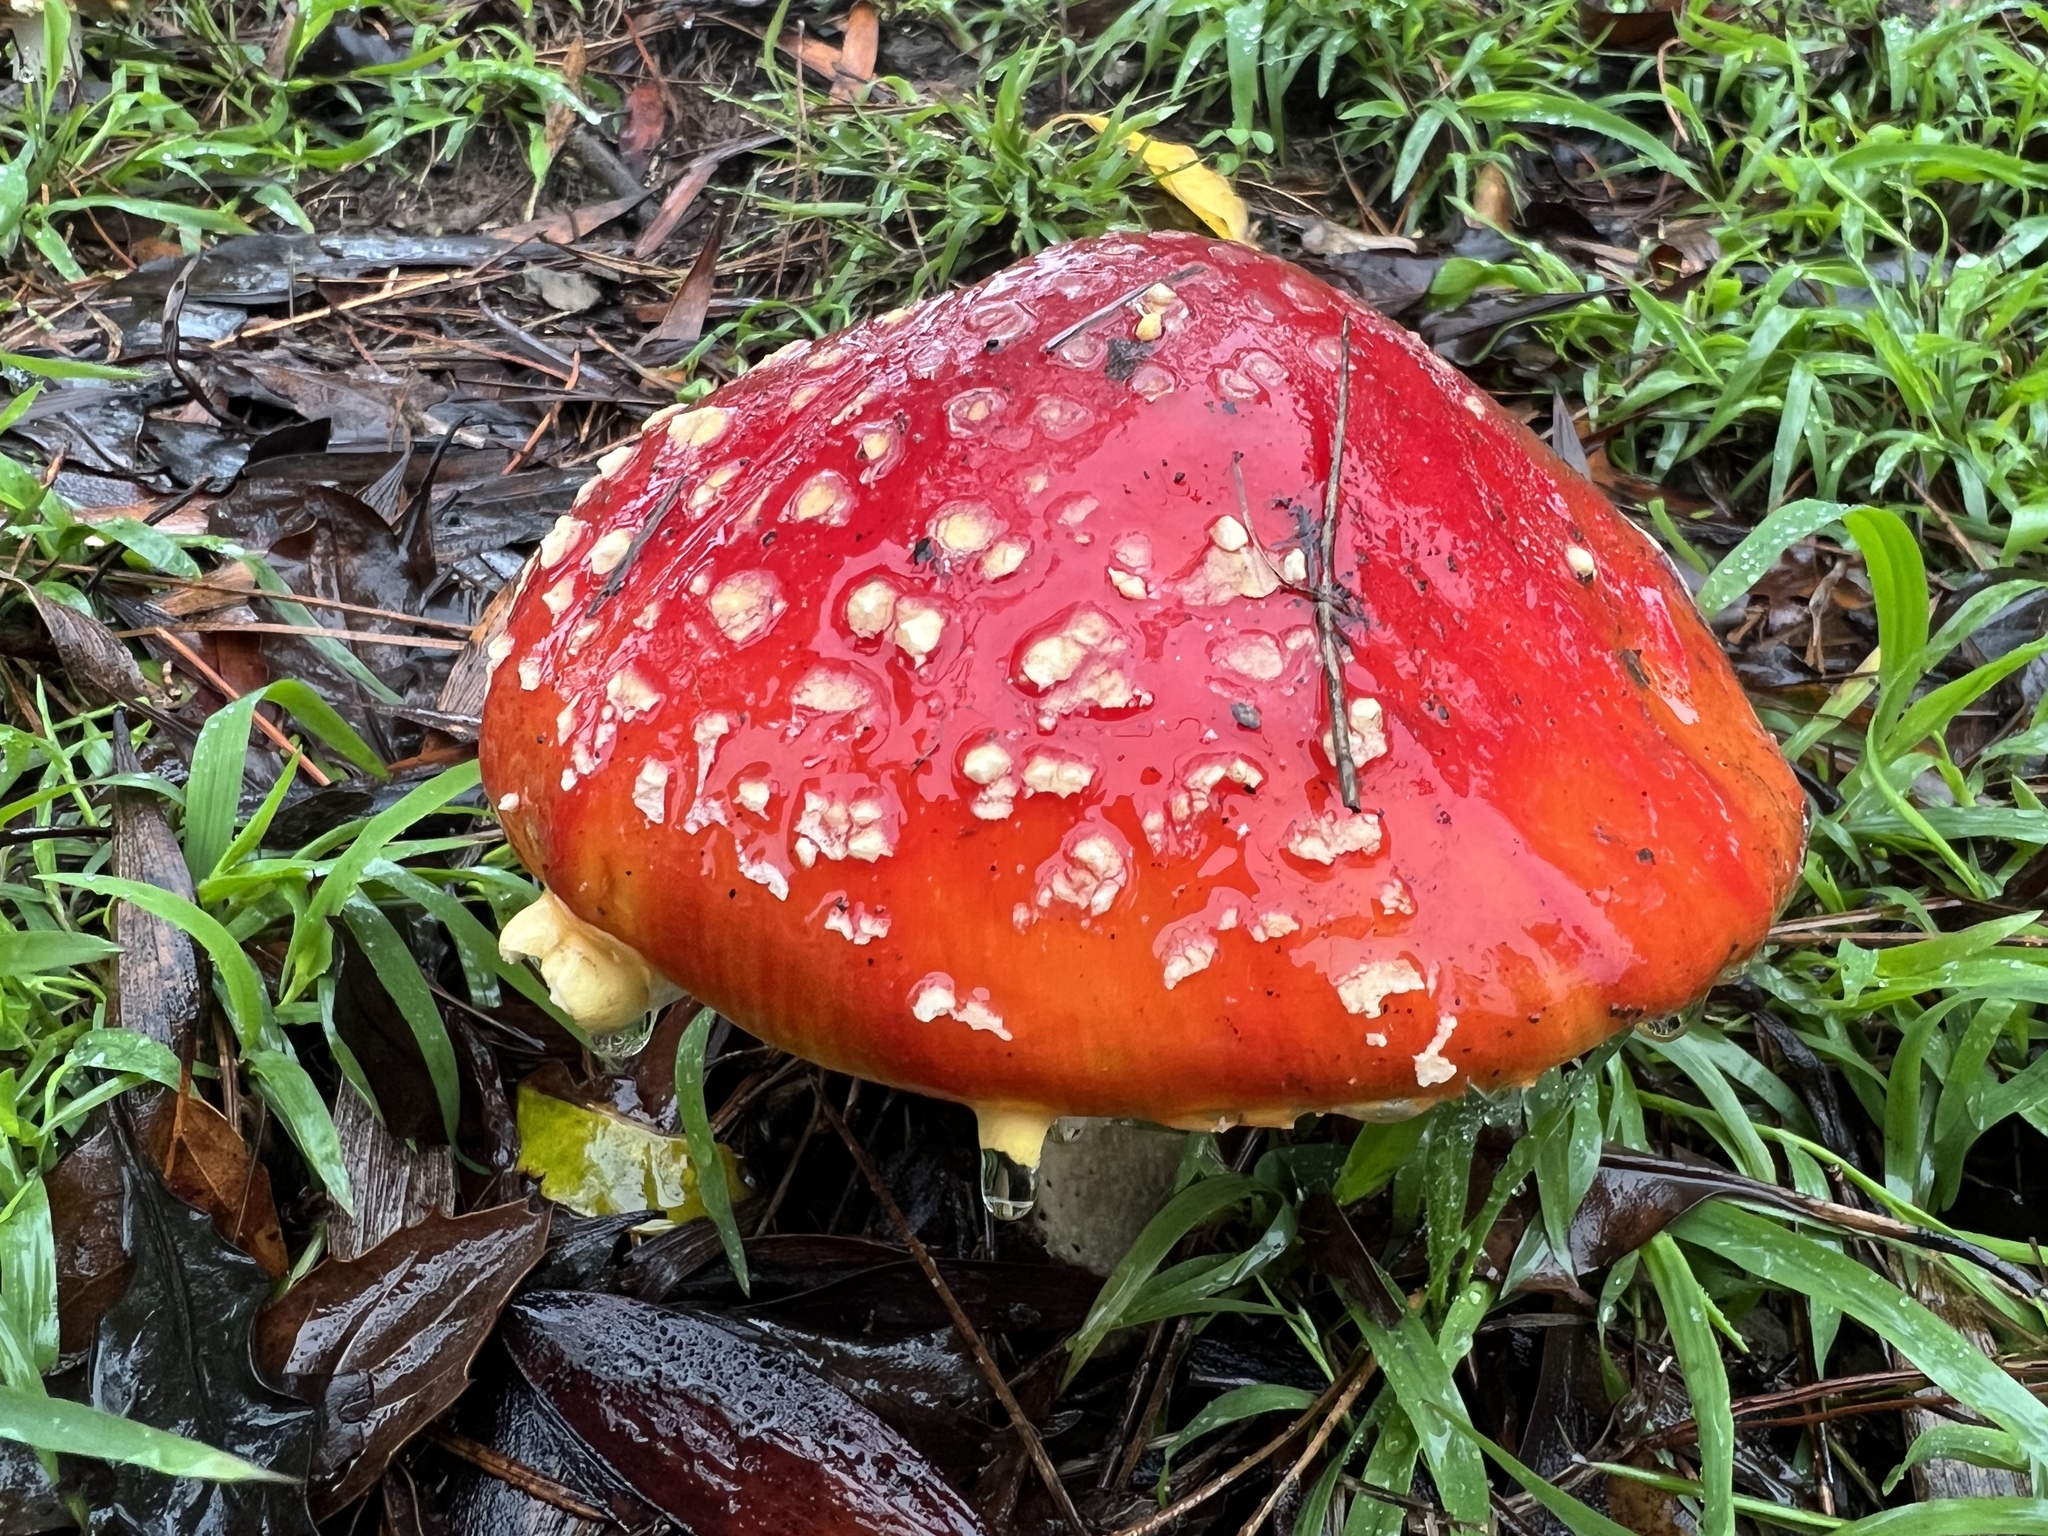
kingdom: Fungi
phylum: Basidiomycota
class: Agaricomycetes
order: Agaricales
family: Amanitaceae
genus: Amanita
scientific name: Amanita muscaria
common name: Fly agaric
